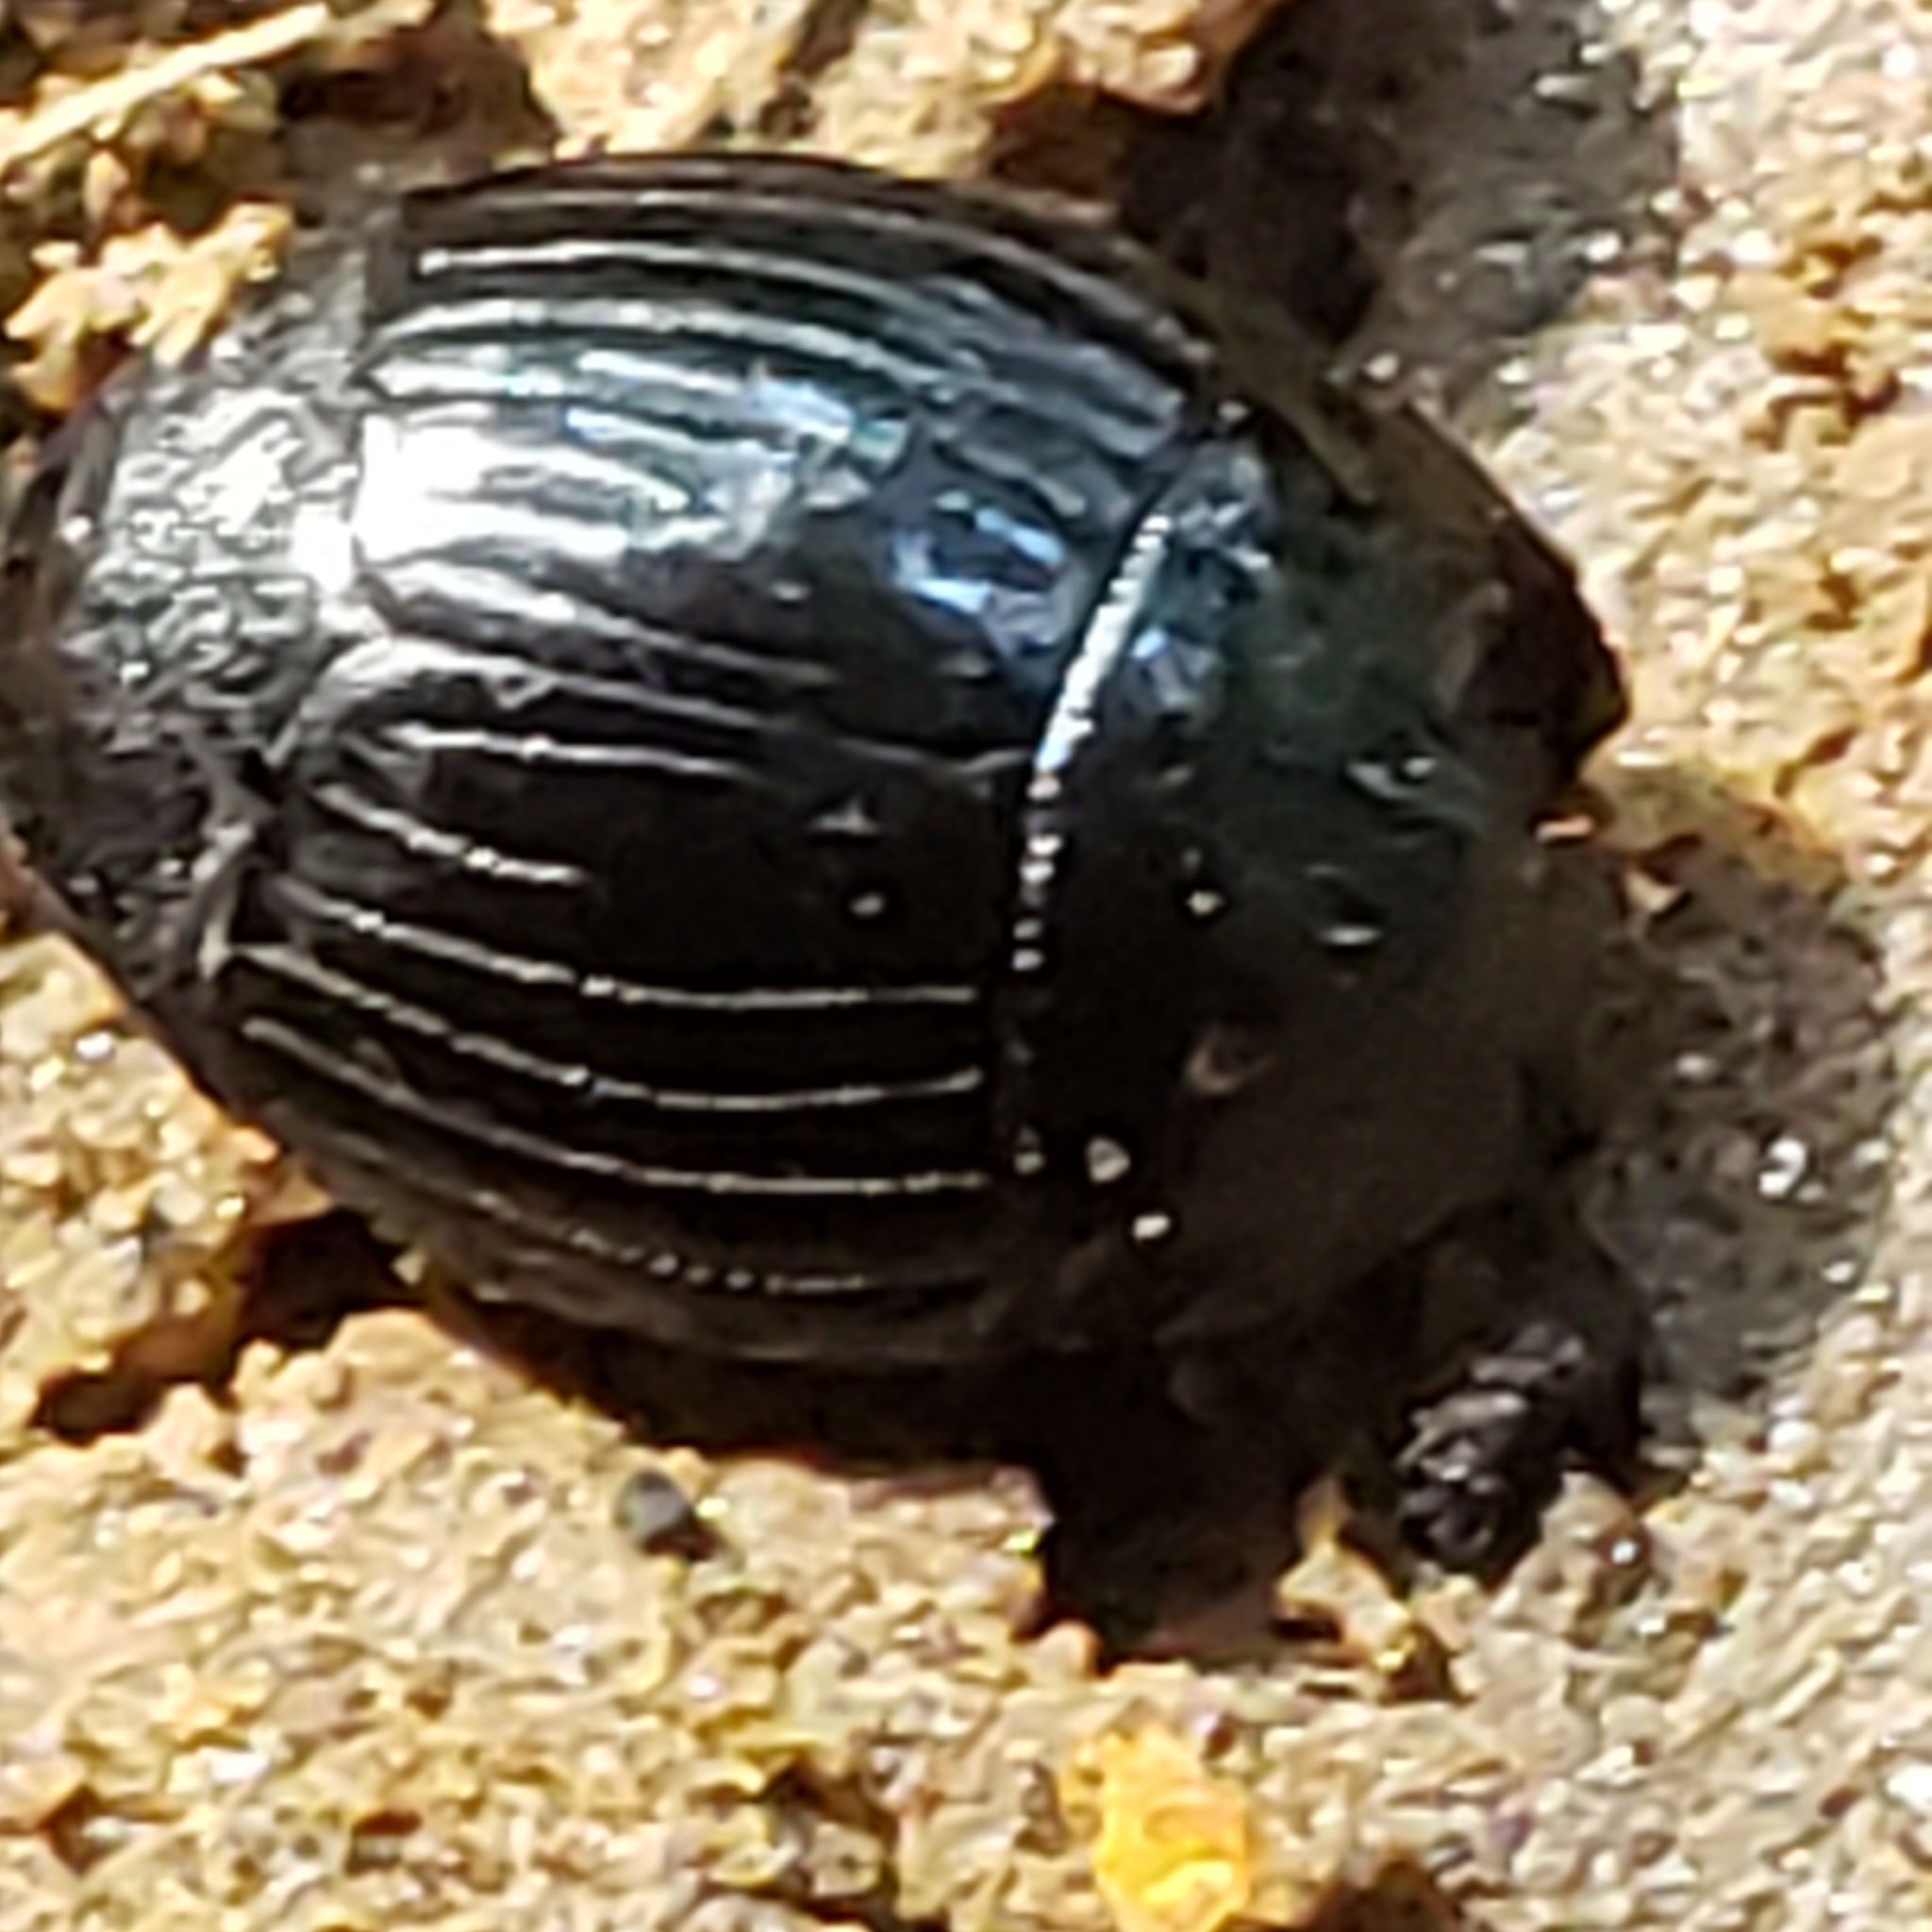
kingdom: Animalia
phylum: Arthropoda
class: Insecta
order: Coleoptera
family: Histeridae
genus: Hister
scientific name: Hister abbreviatus
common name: Abbreviated clown beetle
